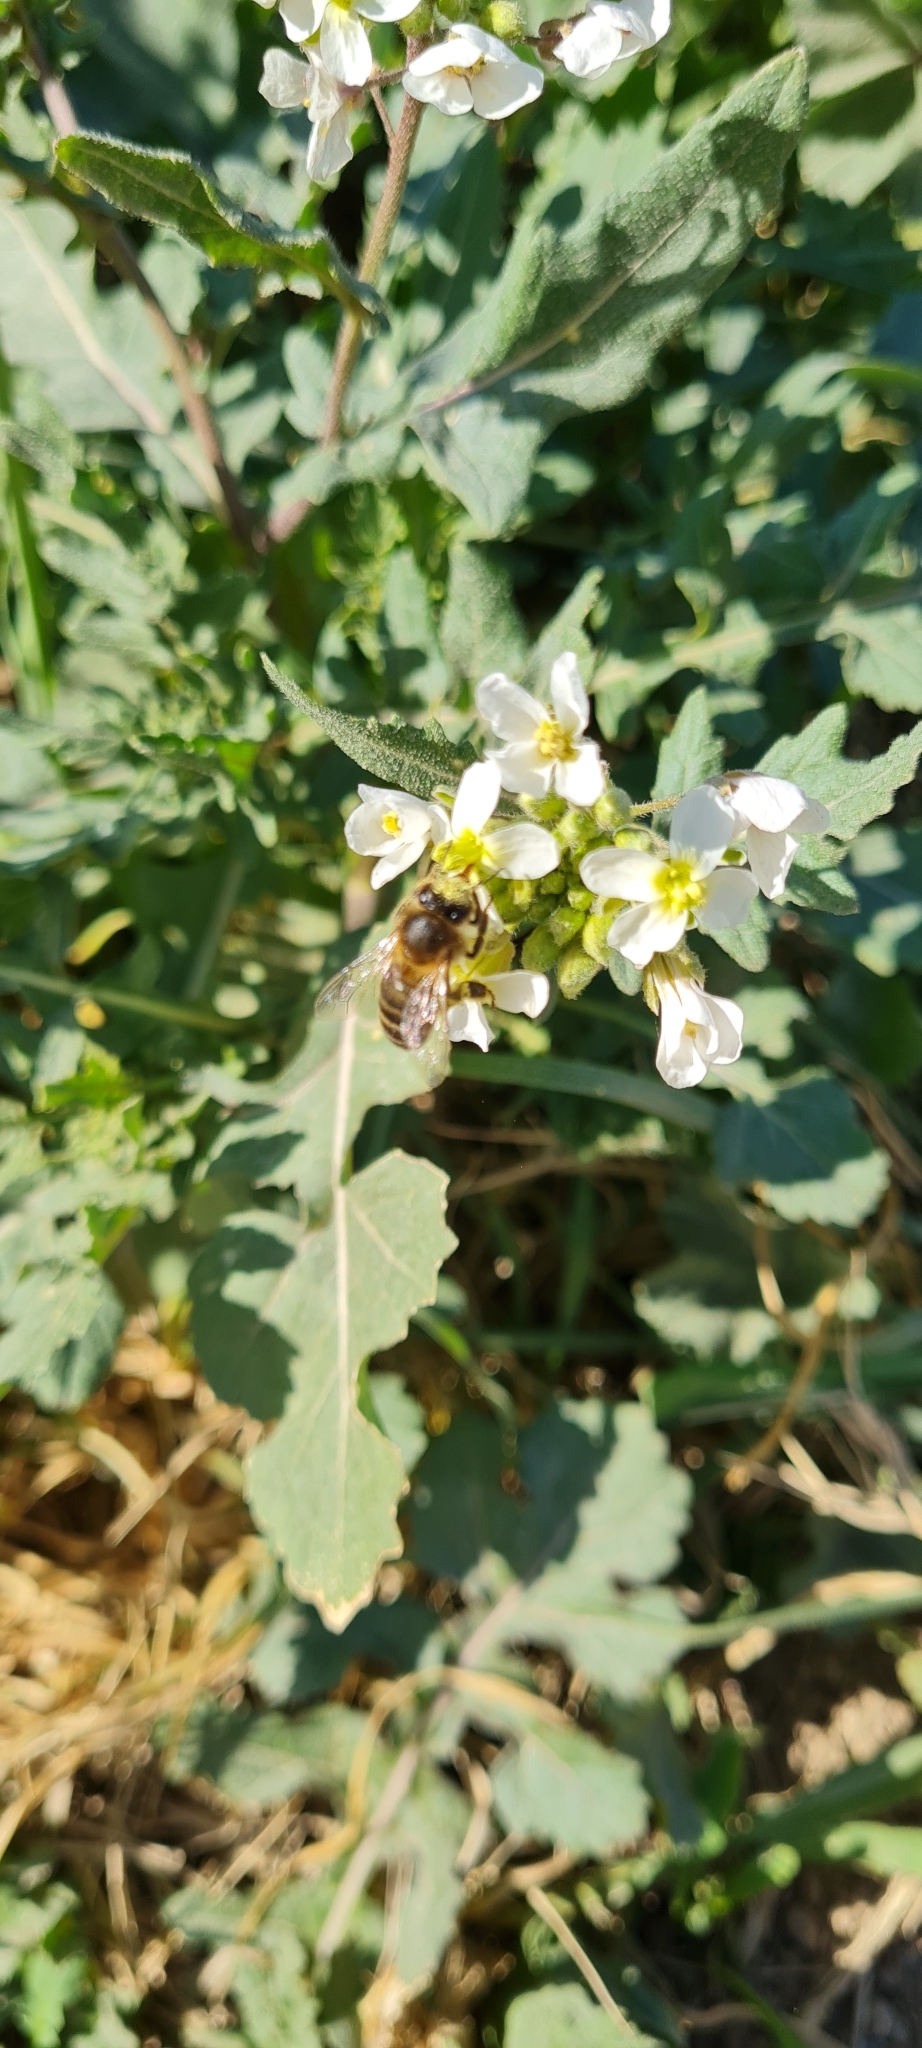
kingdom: Animalia
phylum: Arthropoda
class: Insecta
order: Hymenoptera
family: Apidae
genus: Apis
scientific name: Apis mellifera
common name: Honey bee
